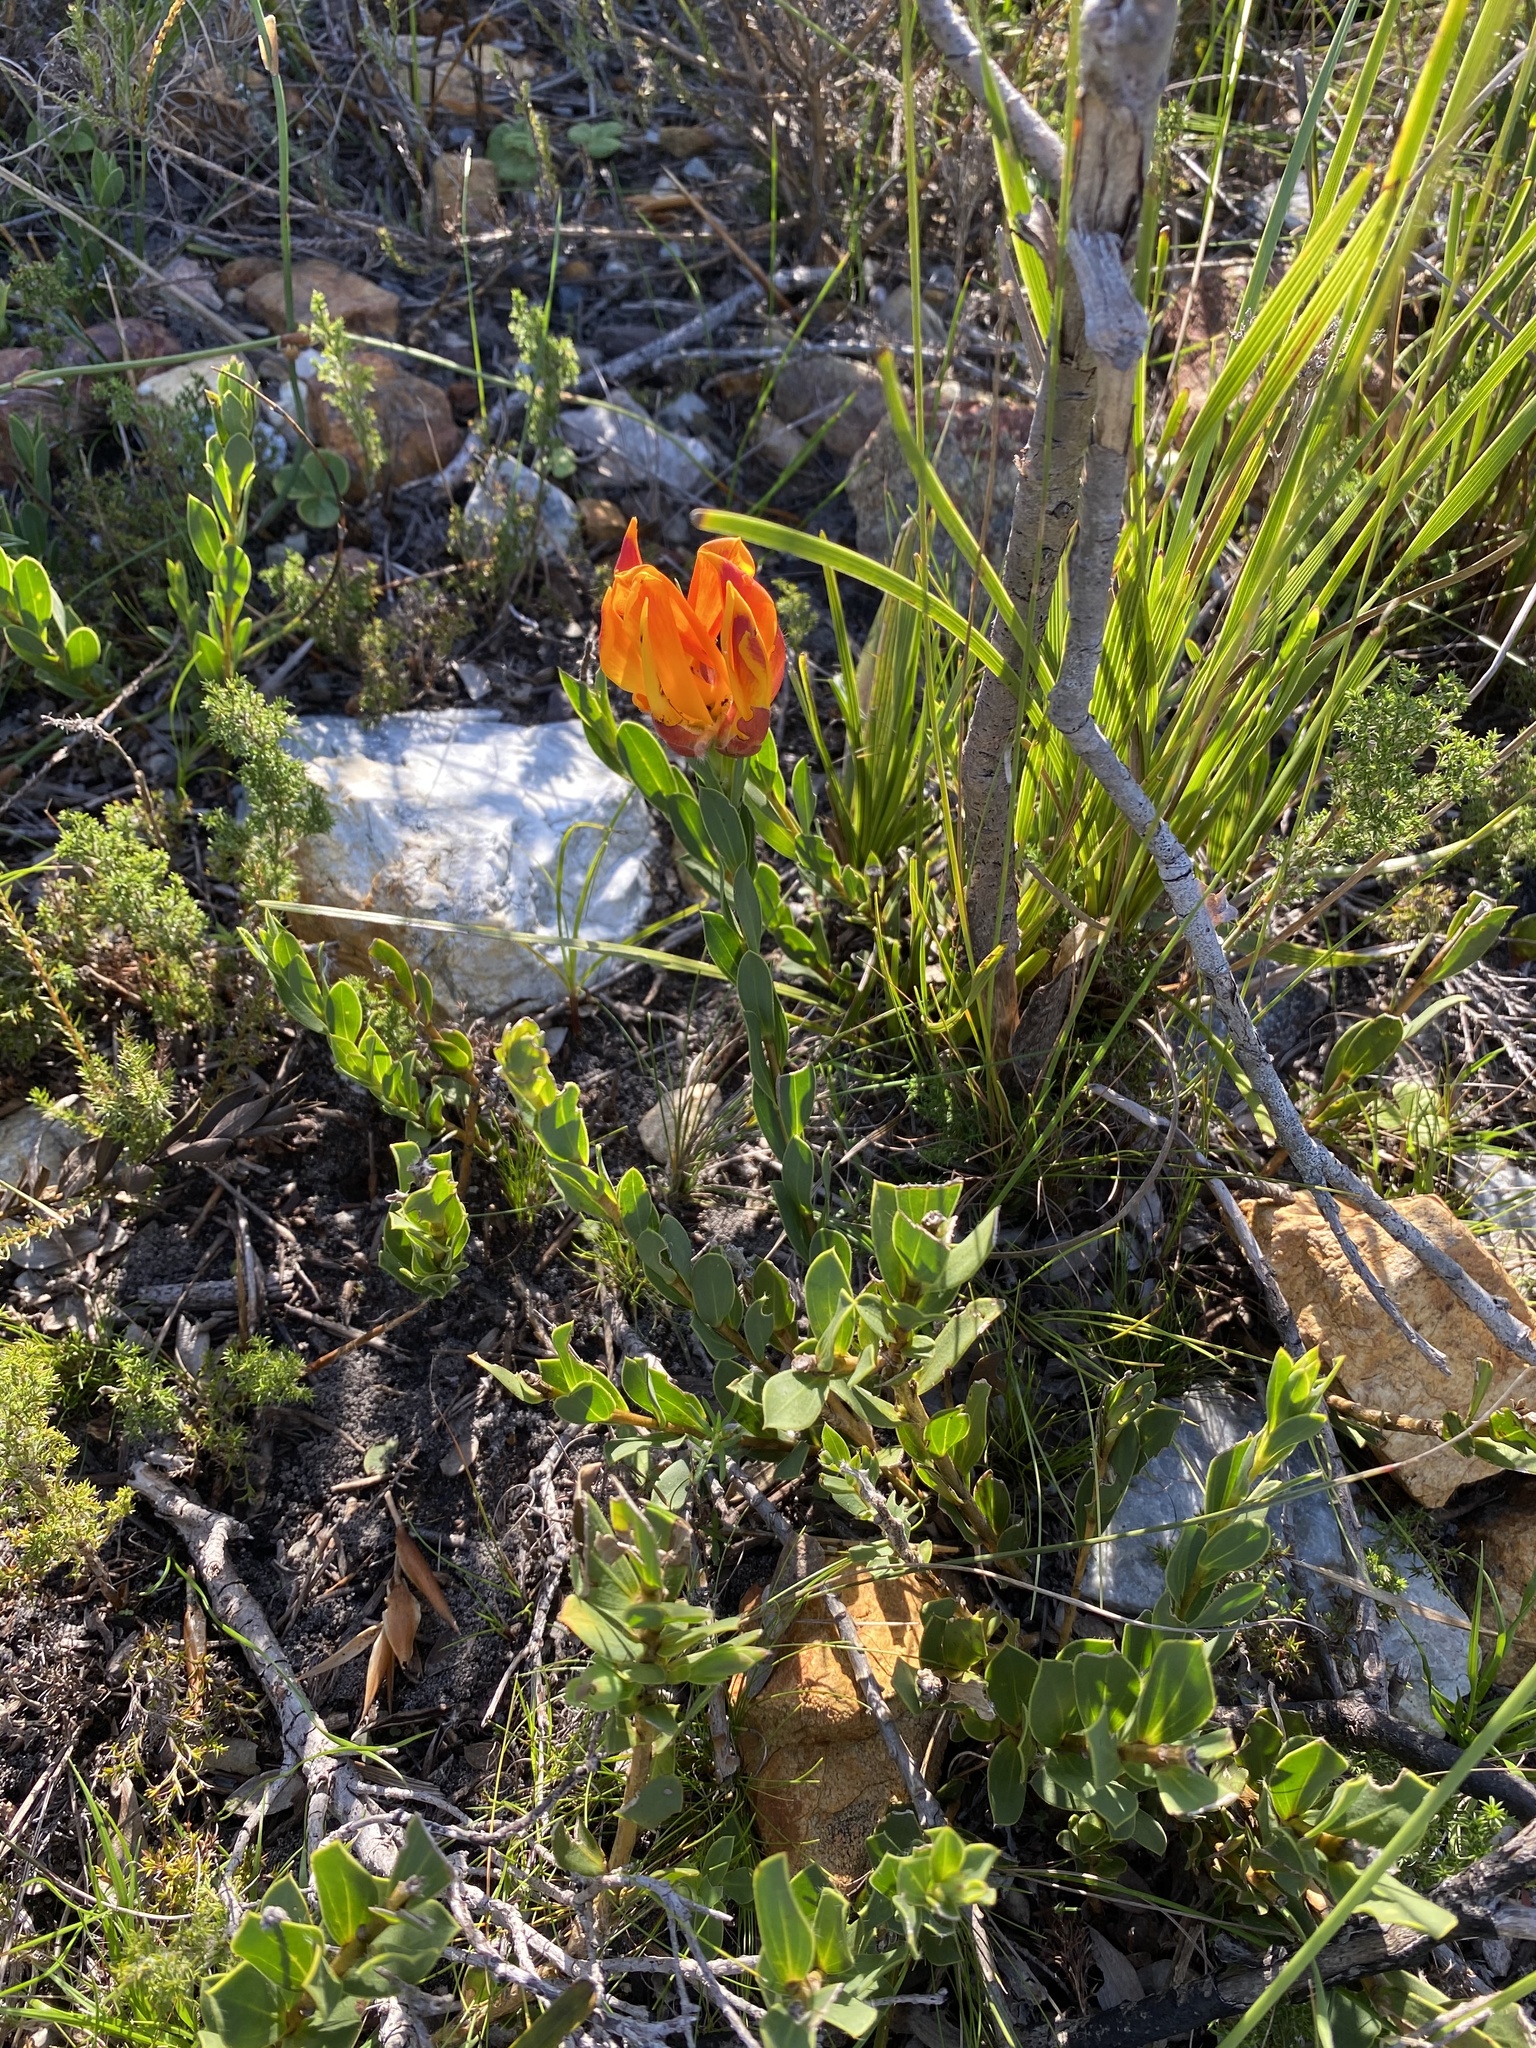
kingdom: Plantae
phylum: Tracheophyta
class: Magnoliopsida
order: Fabales
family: Fabaceae
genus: Liparia
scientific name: Liparia splendens
